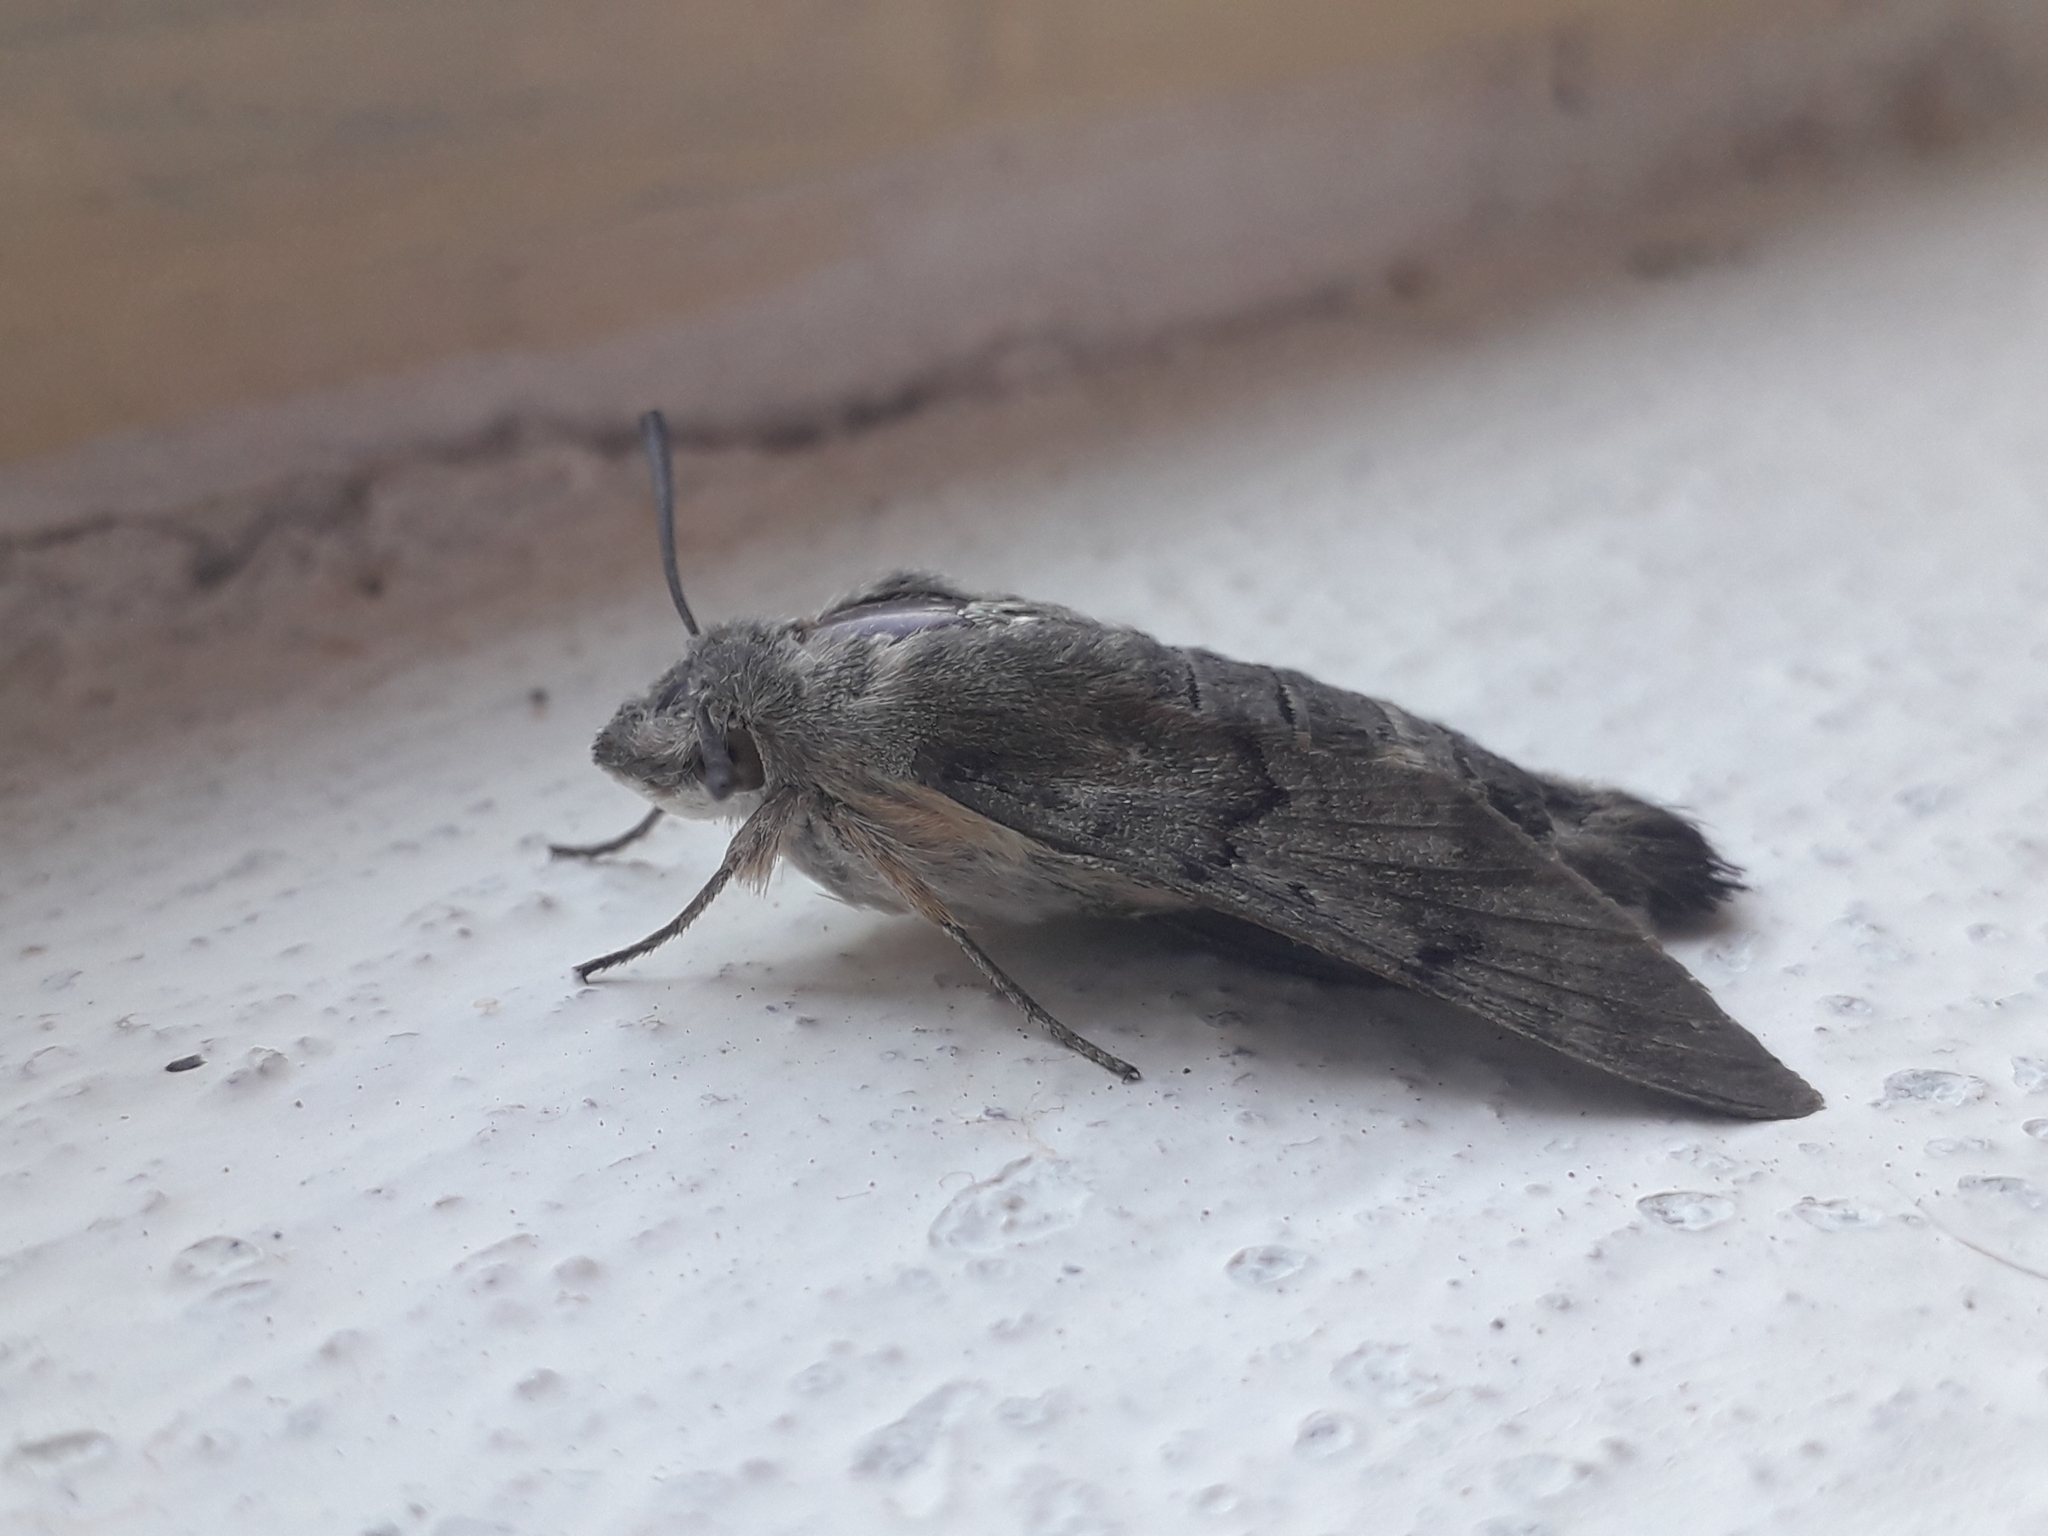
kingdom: Animalia
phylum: Arthropoda
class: Insecta
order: Lepidoptera
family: Sphingidae
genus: Macroglossum
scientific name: Macroglossum stellatarum
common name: Humming-bird hawk-moth
